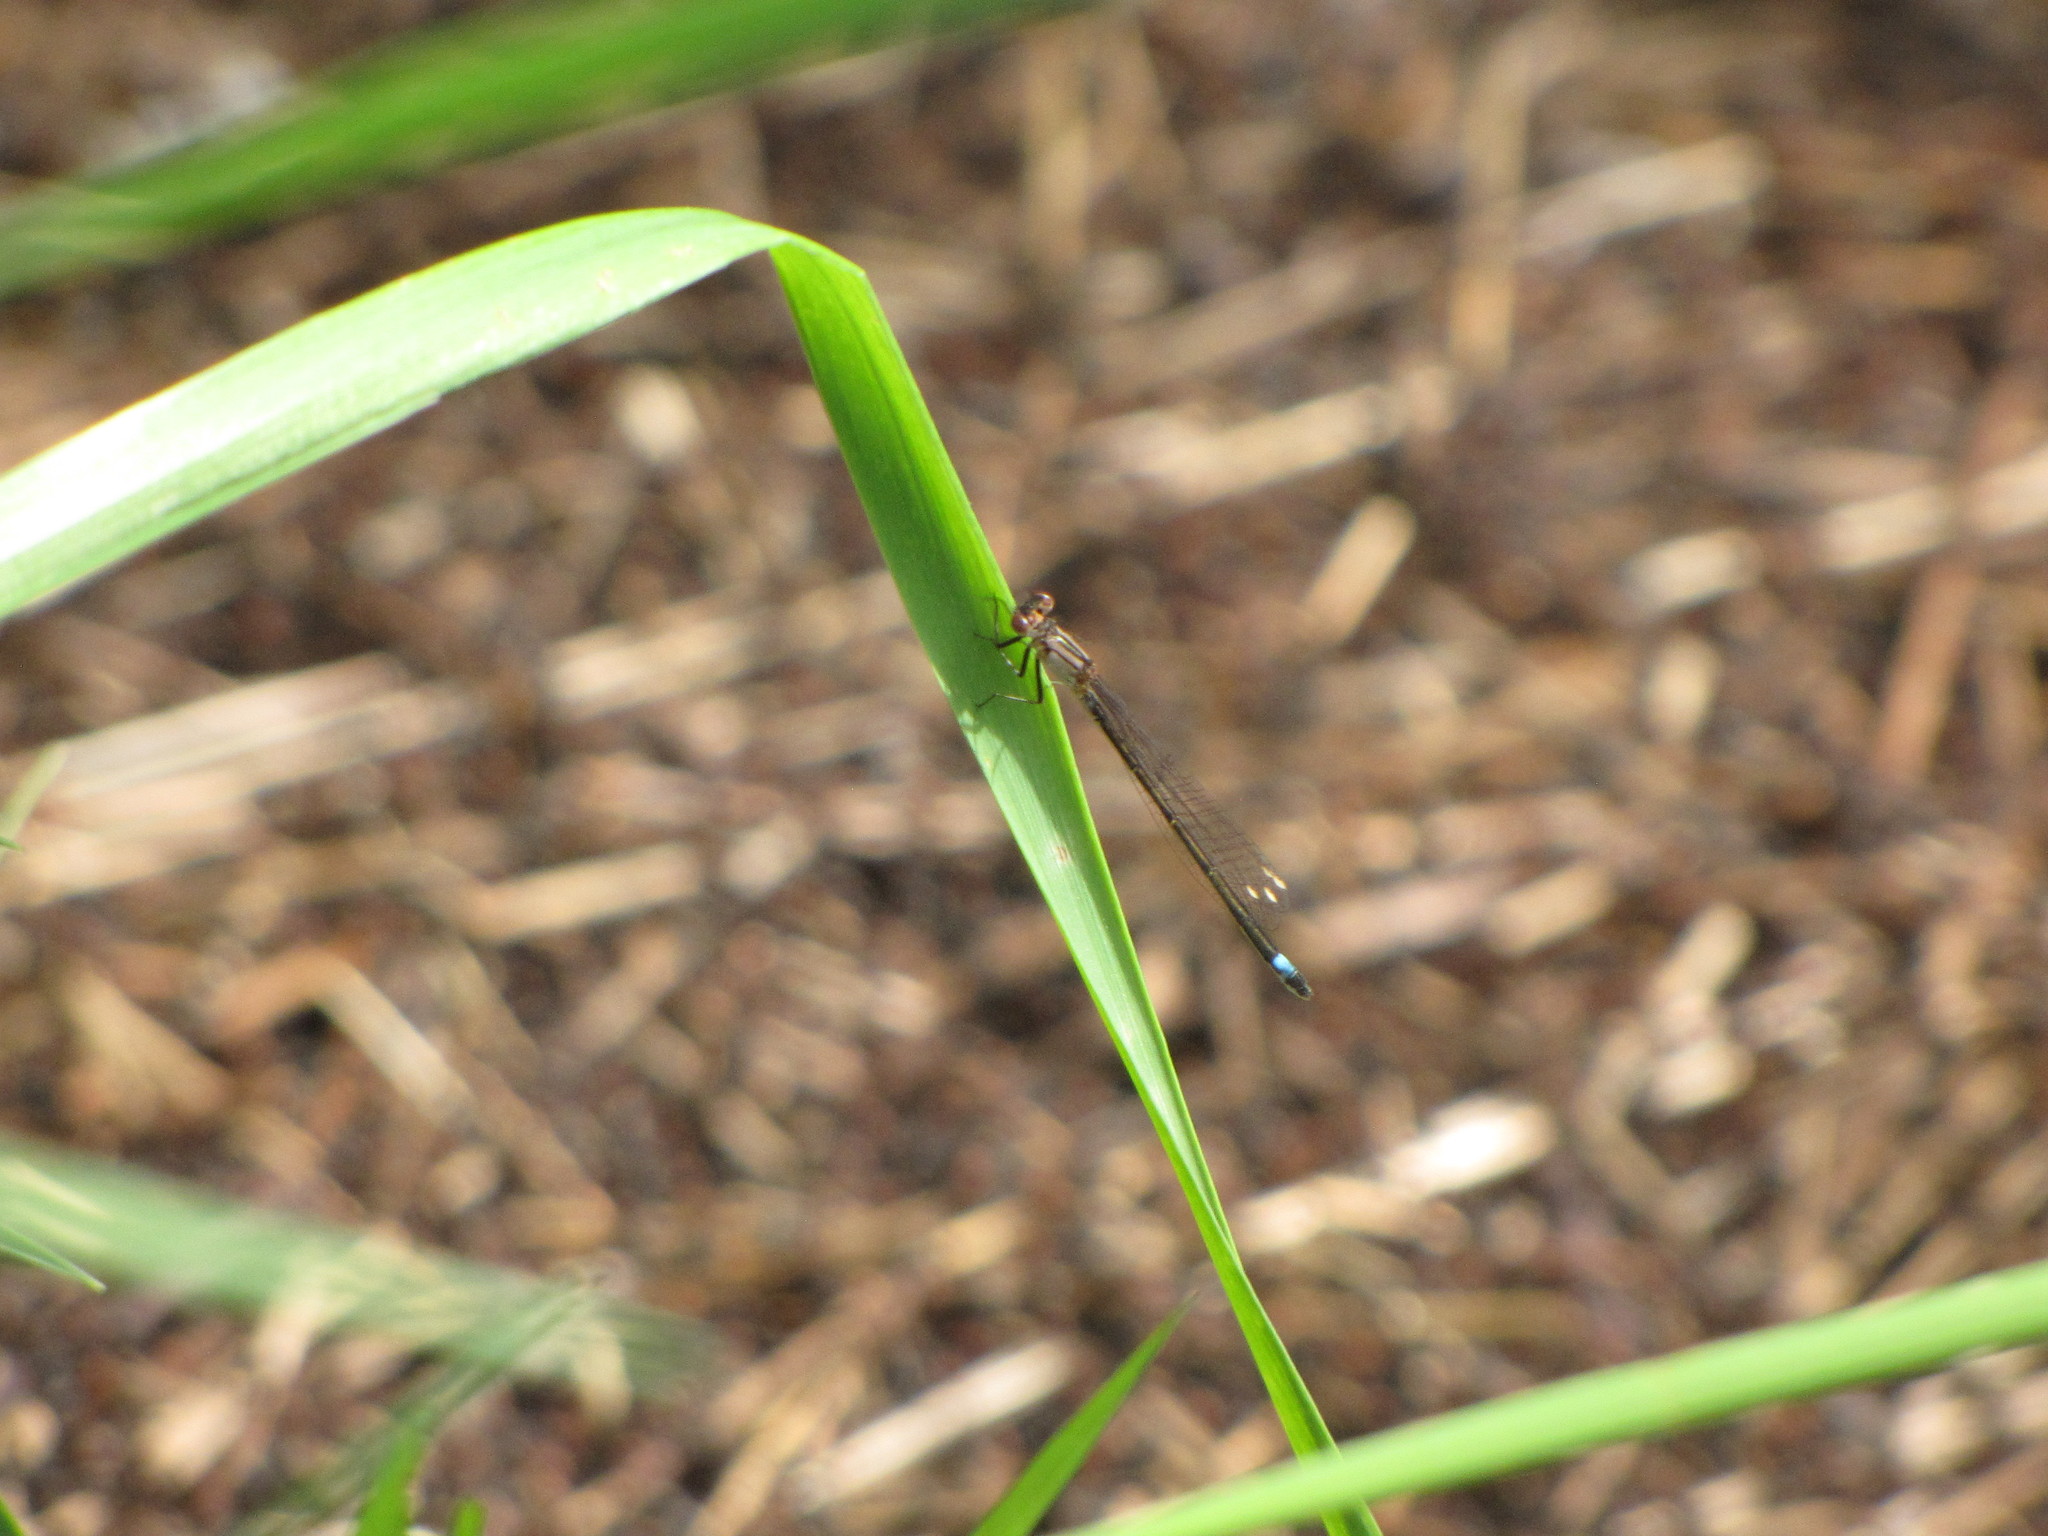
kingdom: Animalia
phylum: Arthropoda
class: Insecta
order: Odonata
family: Coenagrionidae
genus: Ischnura
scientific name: Ischnura cervula
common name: Pacific forktail
